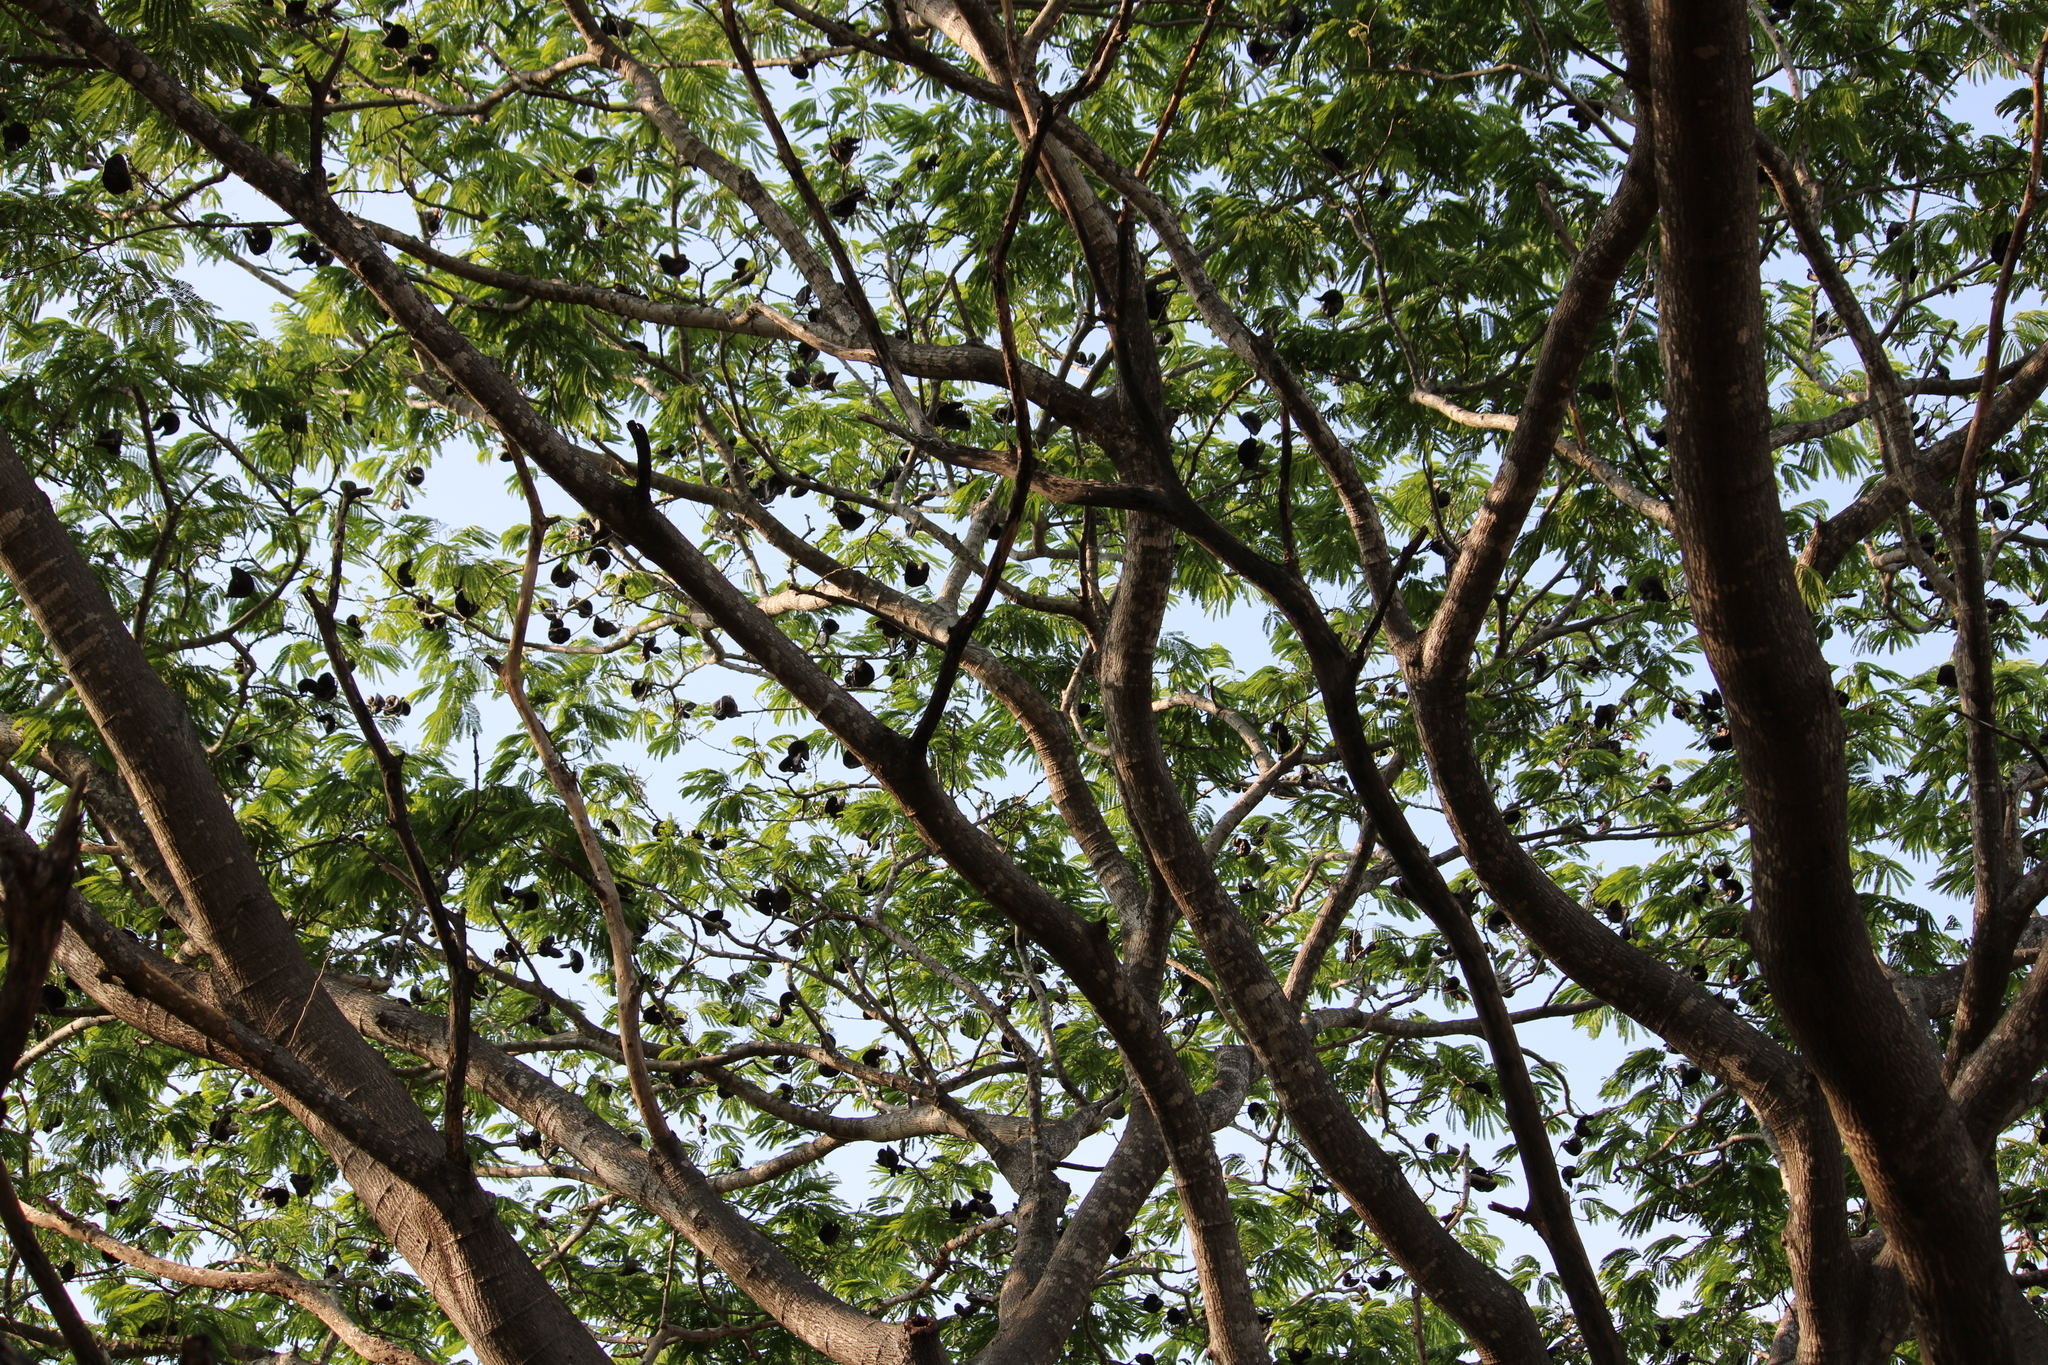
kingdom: Plantae
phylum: Tracheophyta
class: Magnoliopsida
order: Fabales
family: Fabaceae
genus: Enterolobium
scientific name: Enterolobium cyclocarpum
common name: Ear tree
